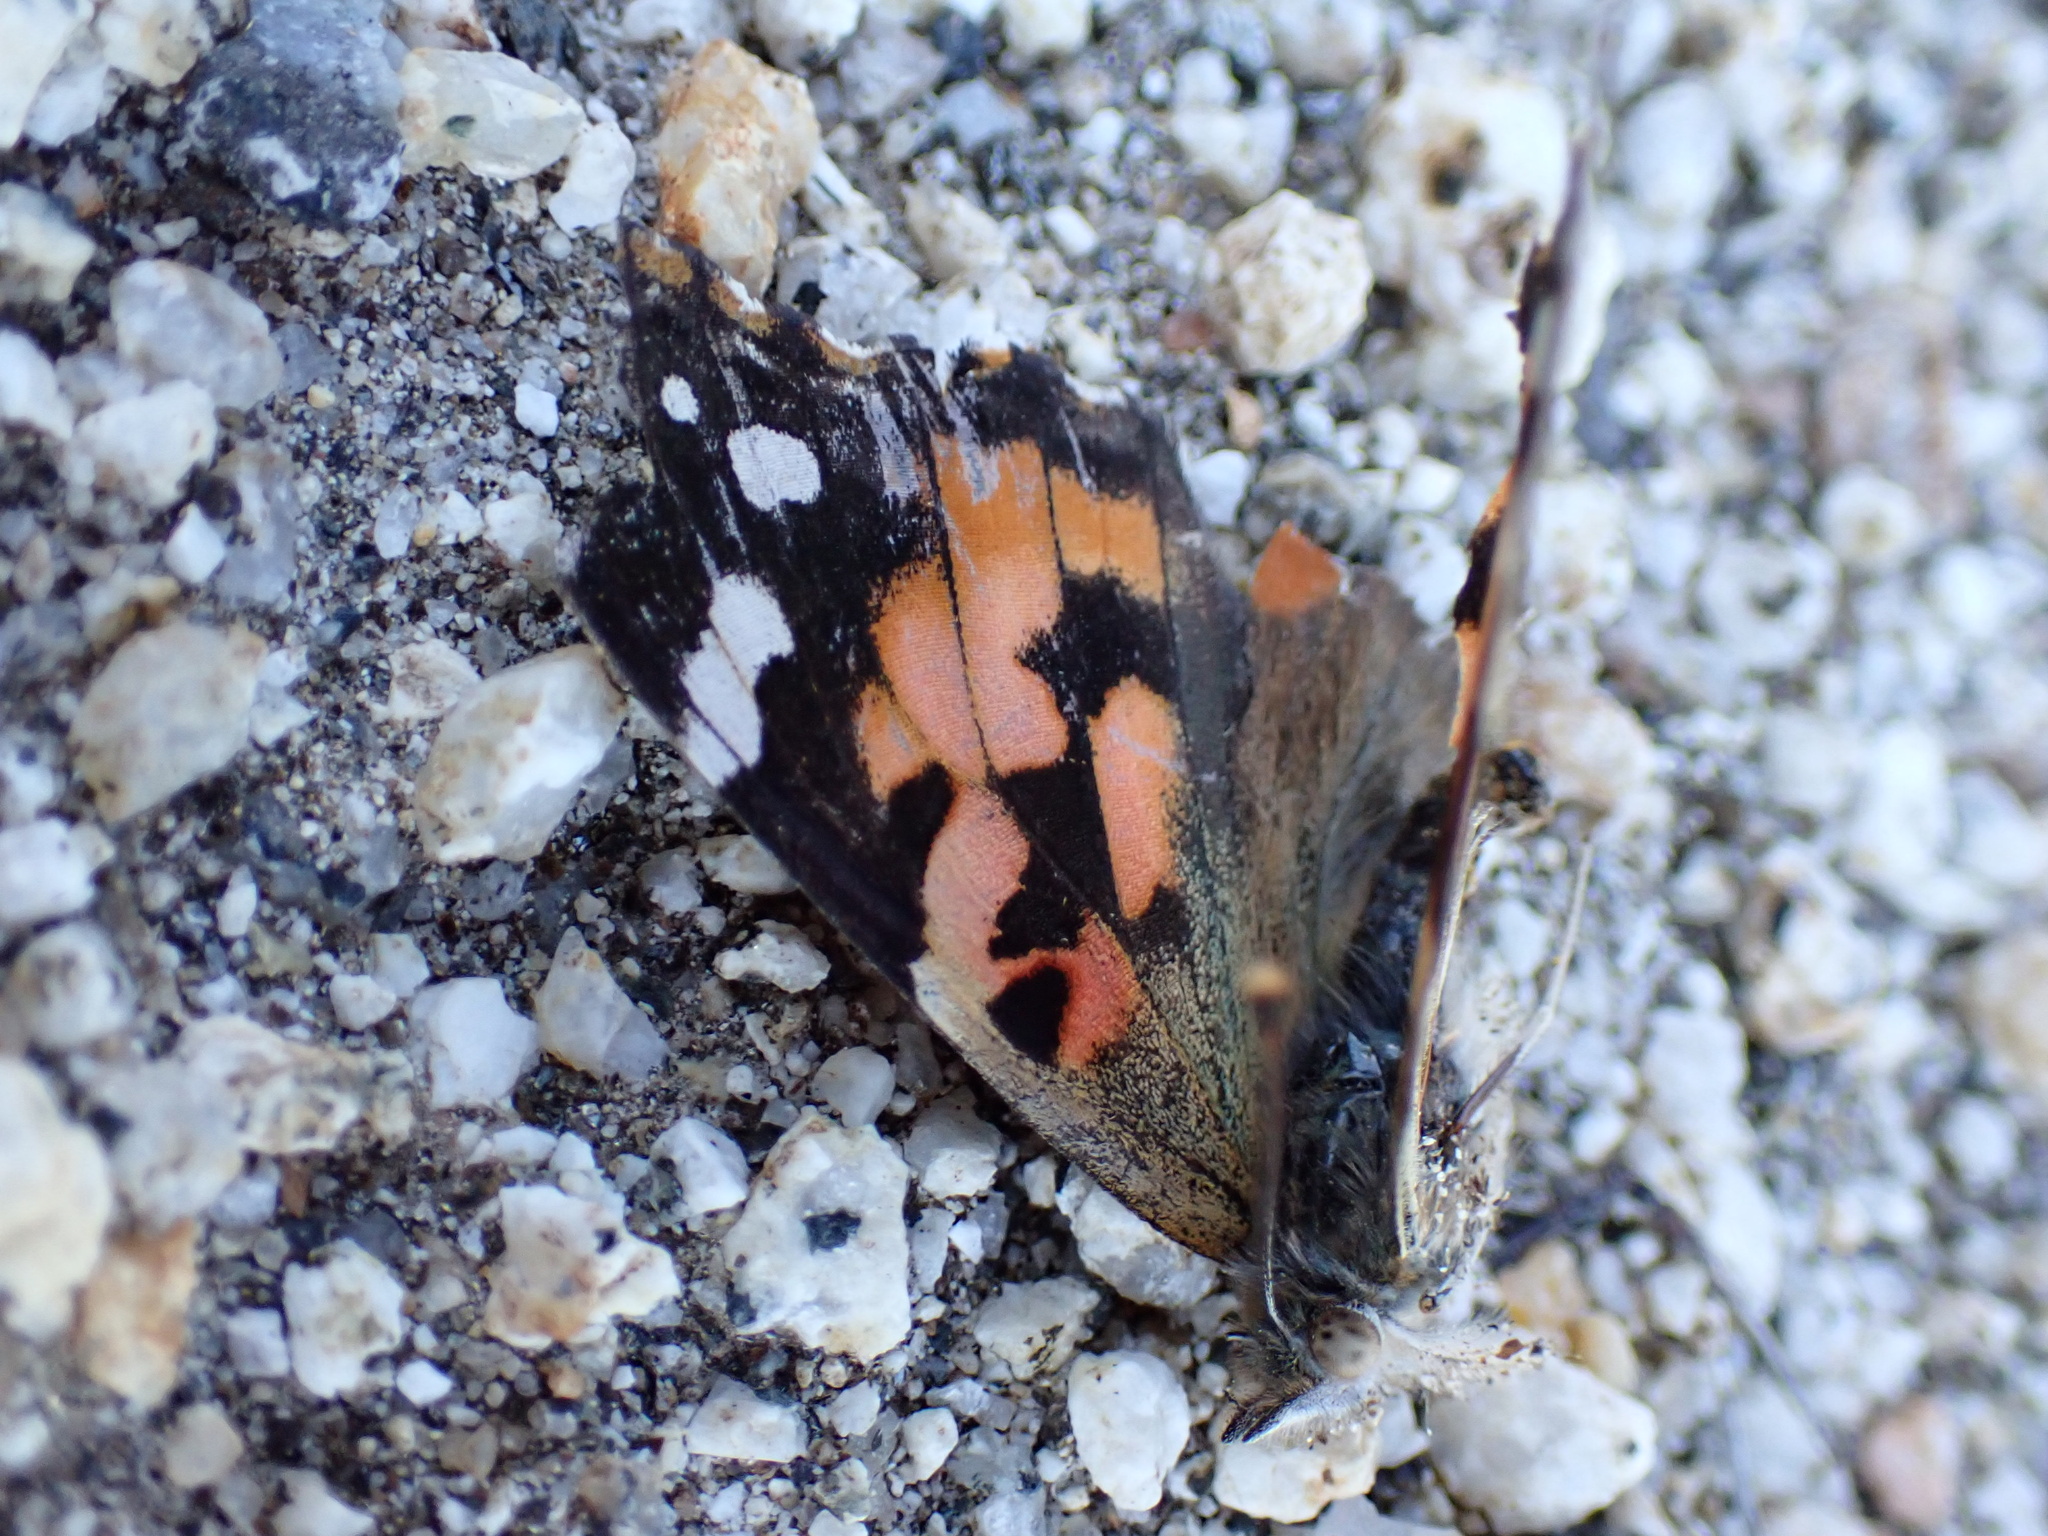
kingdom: Animalia
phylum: Arthropoda
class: Insecta
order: Lepidoptera
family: Nymphalidae
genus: Vanessa
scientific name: Vanessa cardui
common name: Painted lady
